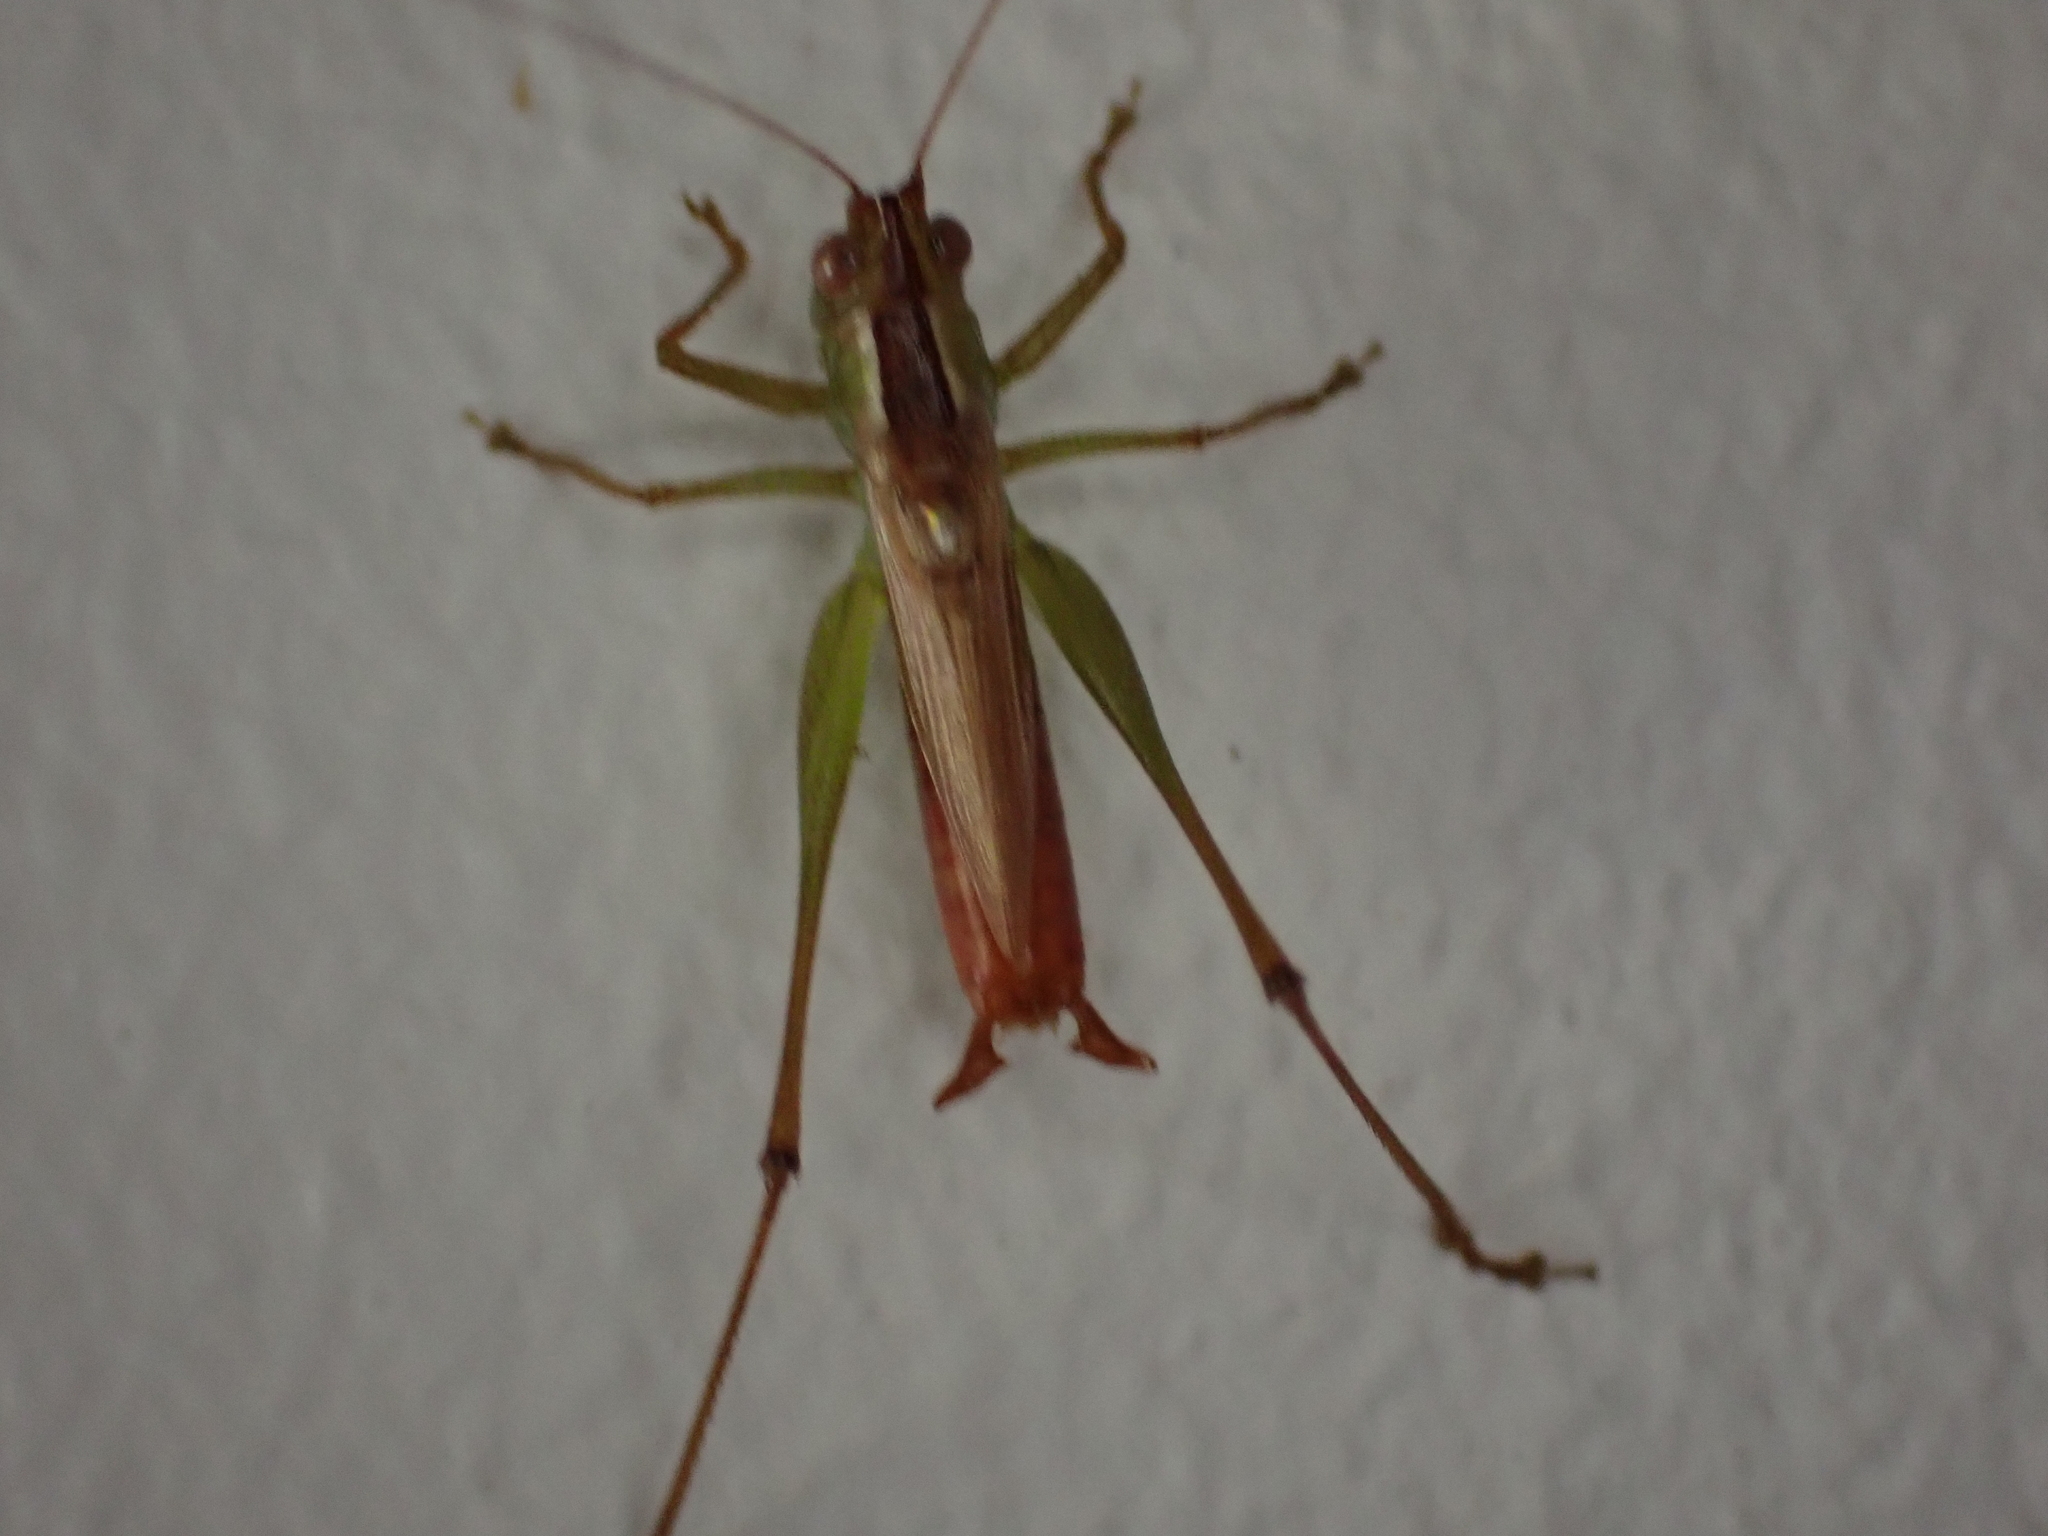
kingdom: Animalia
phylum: Arthropoda
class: Insecta
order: Orthoptera
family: Tettigoniidae
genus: Conocephalus
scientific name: Conocephalus brevipennis
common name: Short-winged meadow katydid
